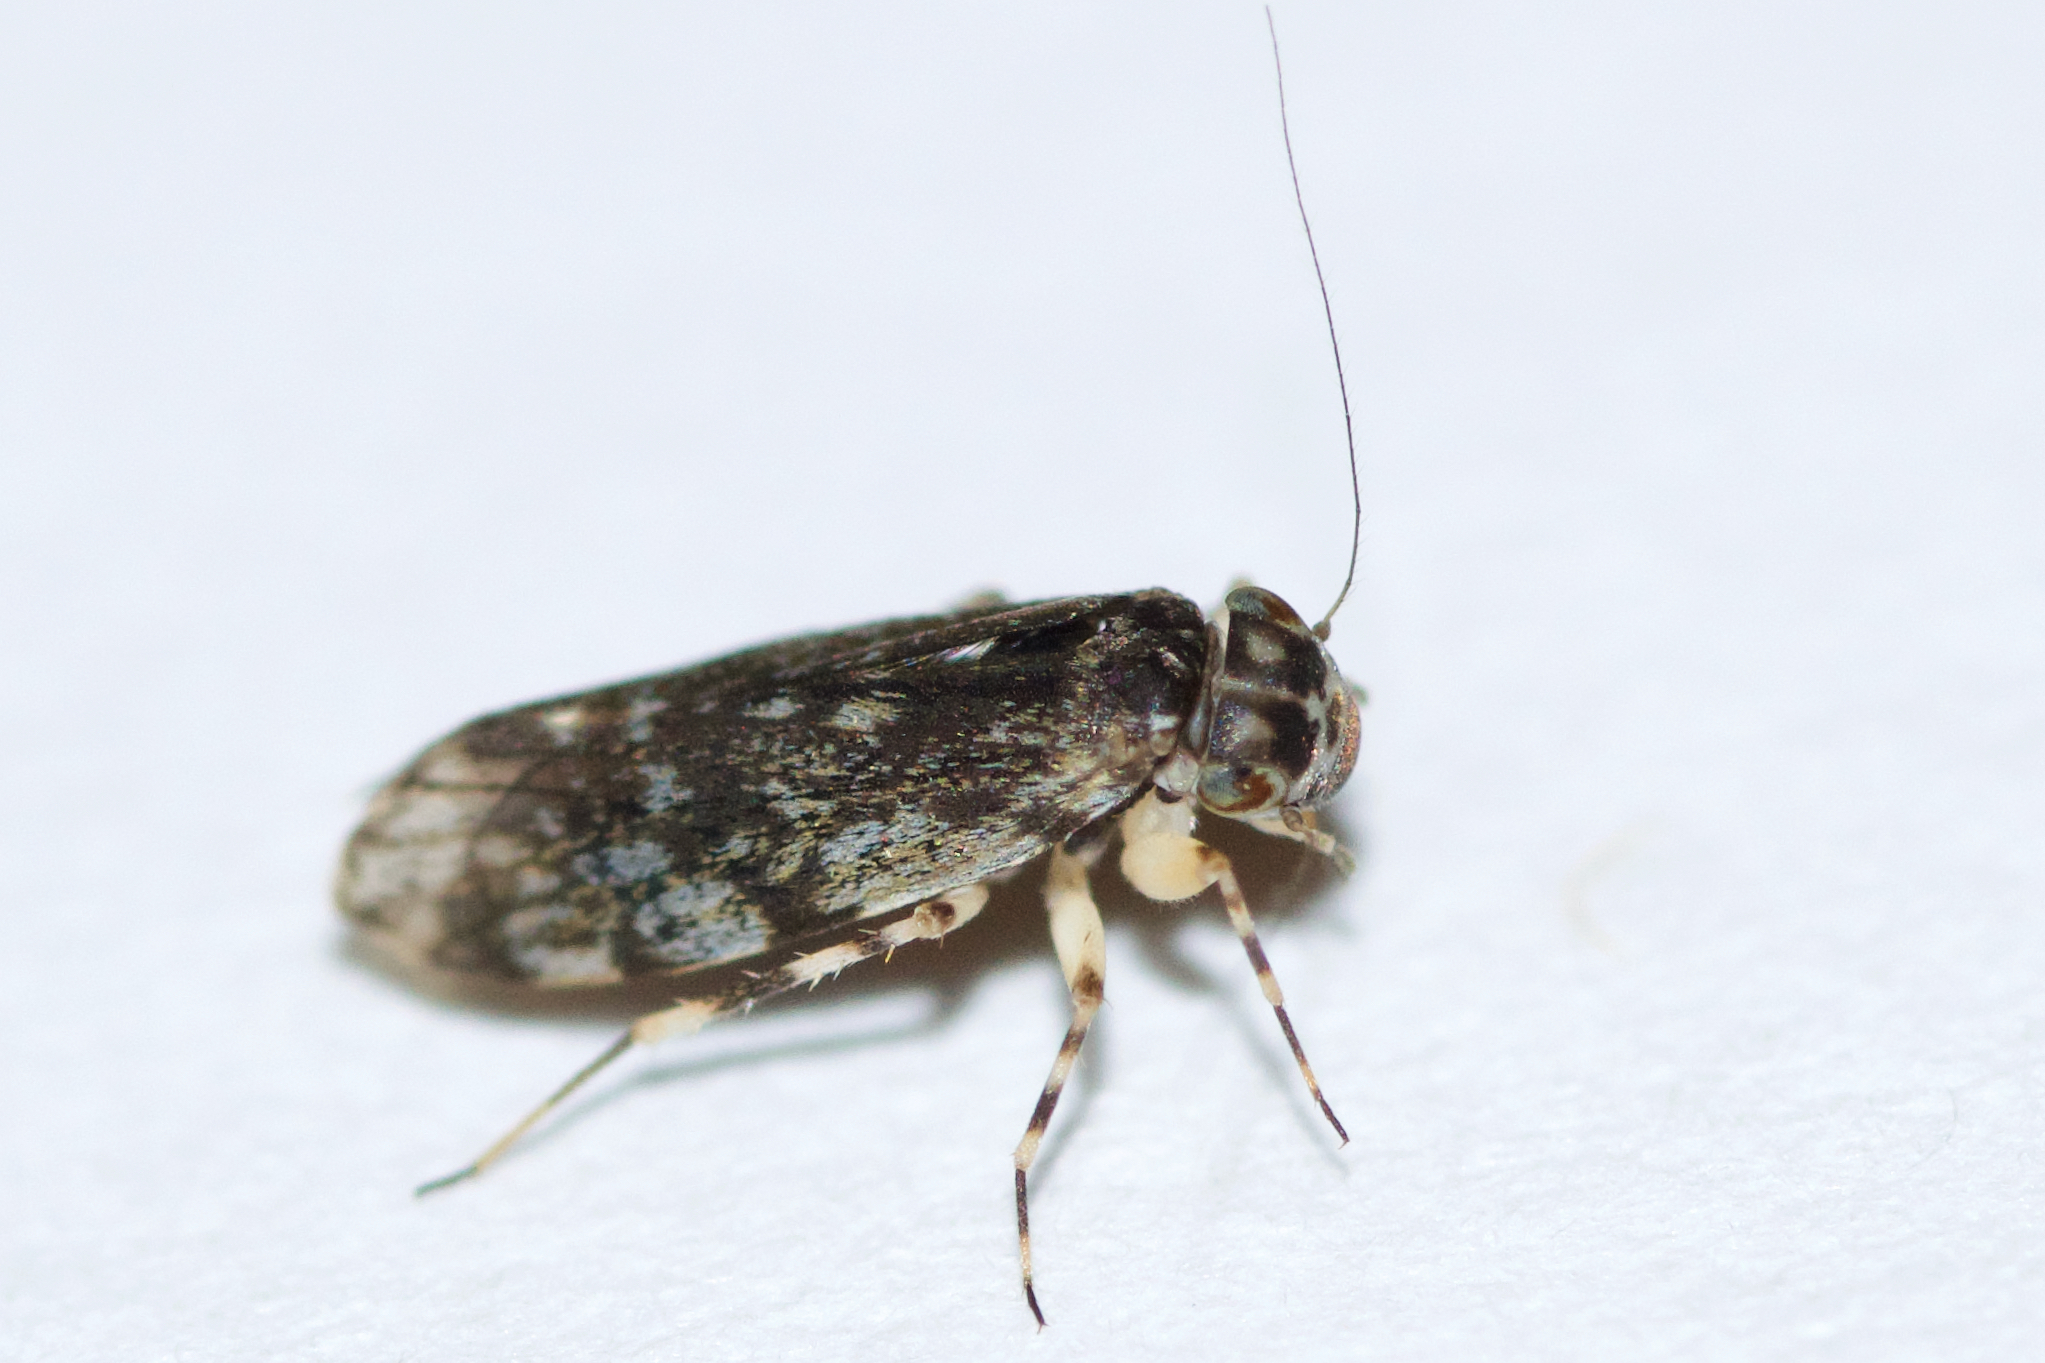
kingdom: Animalia
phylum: Arthropoda
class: Insecta
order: Psocodea
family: Amphientomidae
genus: Stimulopalpus
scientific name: Stimulopalpus japonicus
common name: Tropical bark louse
